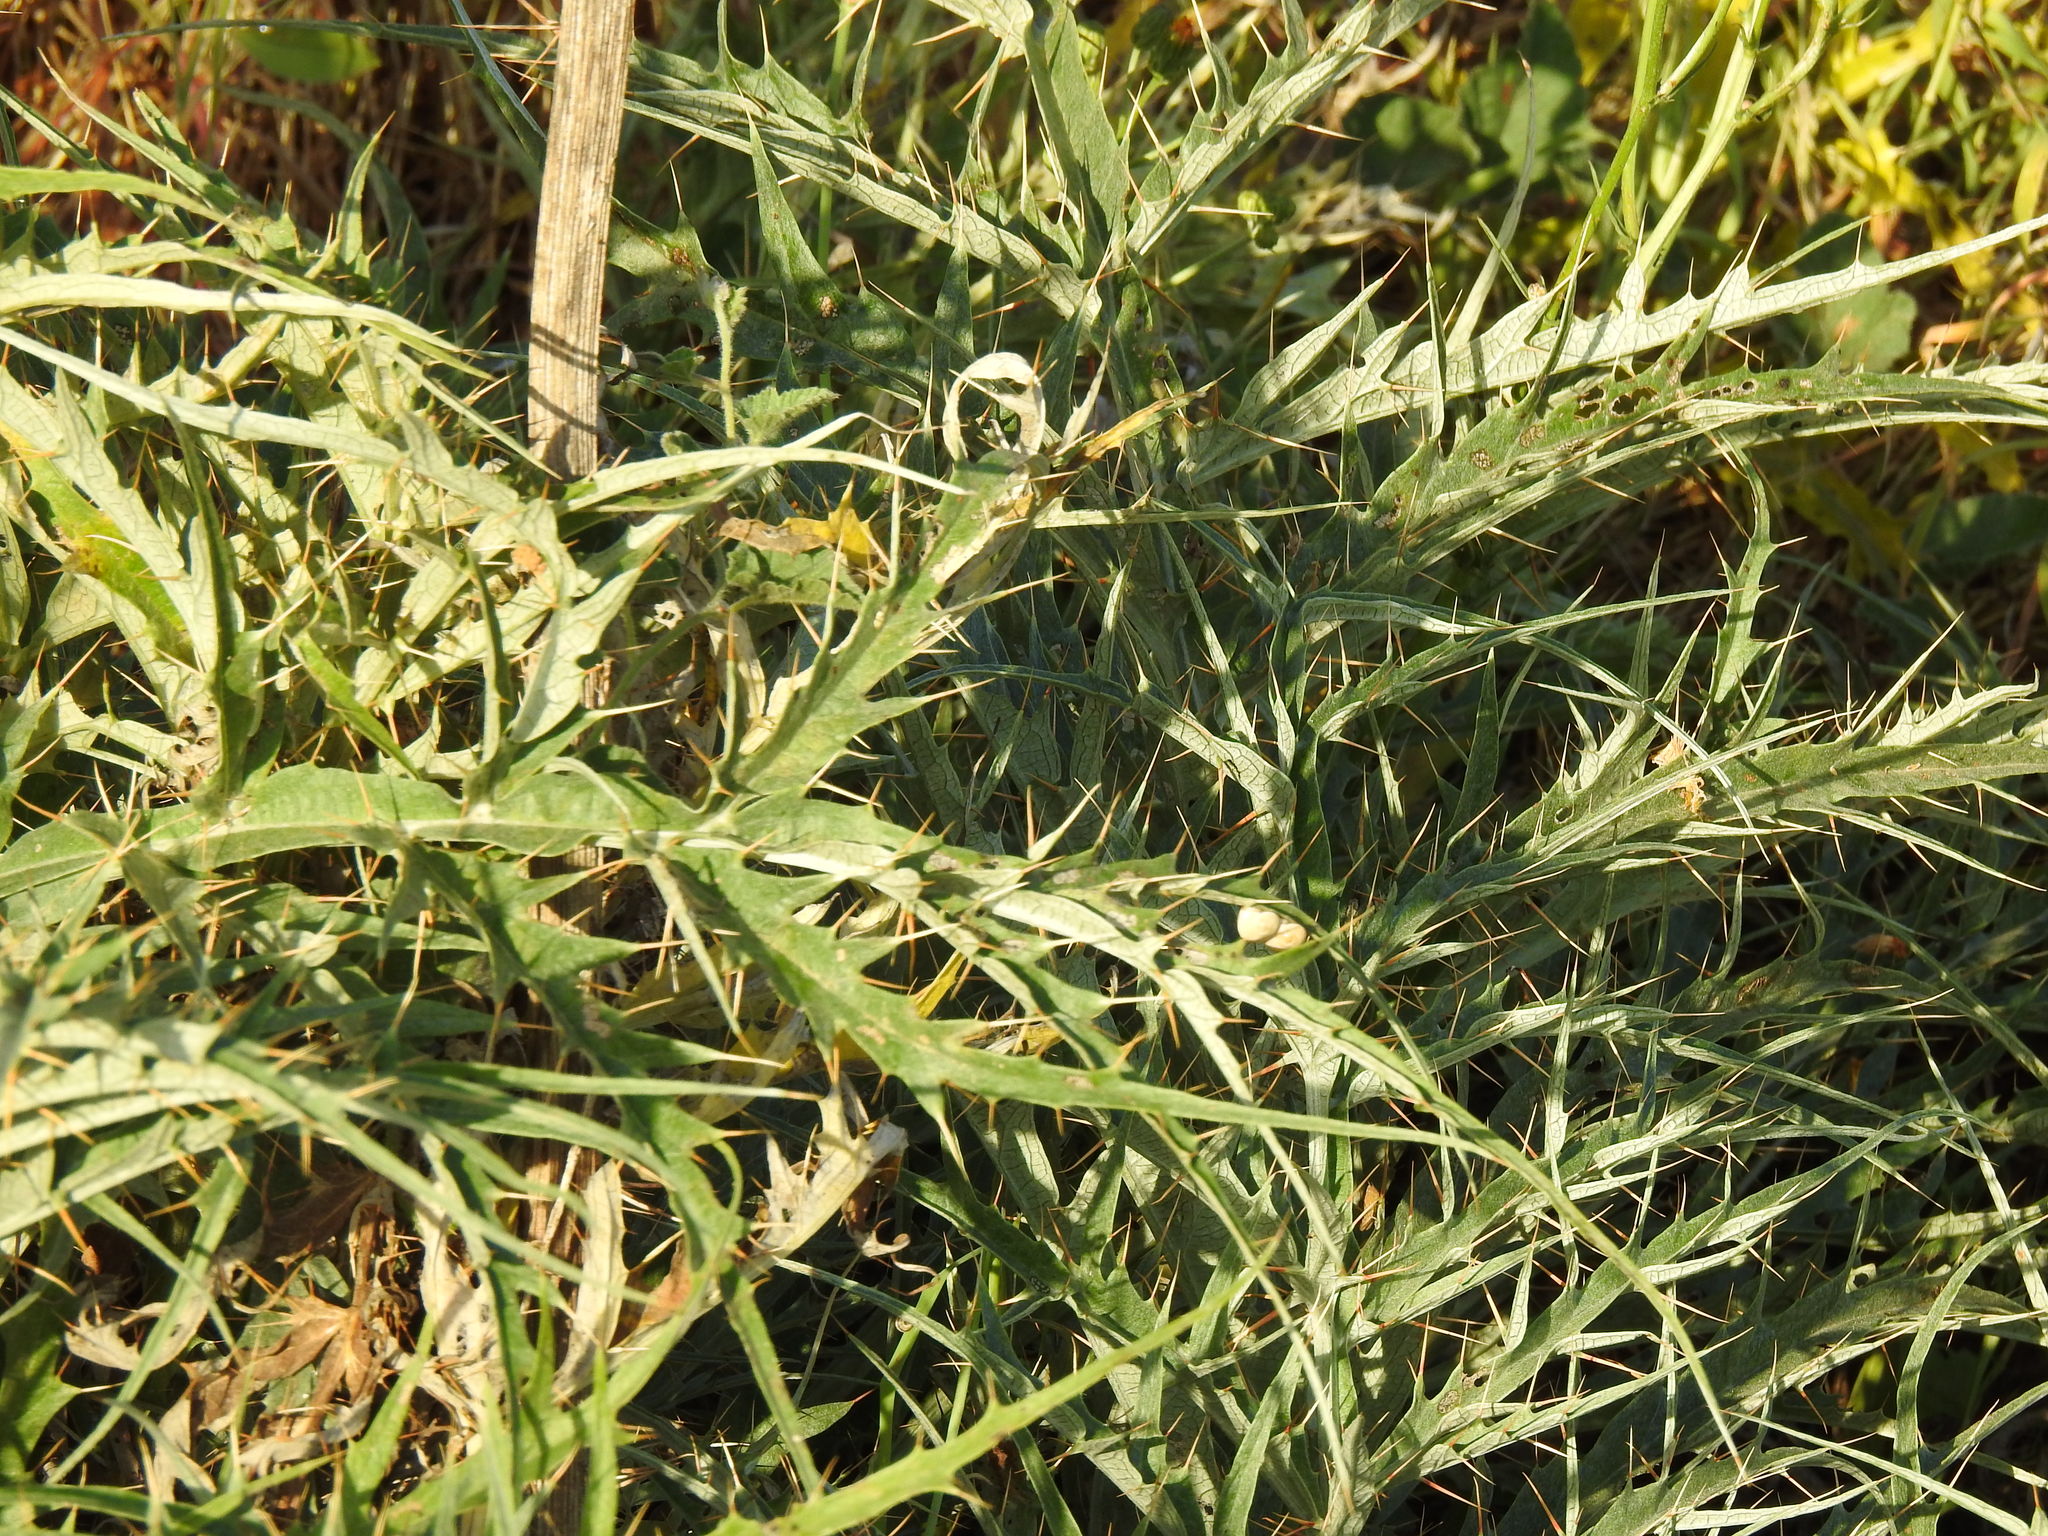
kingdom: Plantae
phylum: Tracheophyta
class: Magnoliopsida
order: Asterales
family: Asteraceae
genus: Cynara
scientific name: Cynara cardunculus
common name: Globe artichoke
